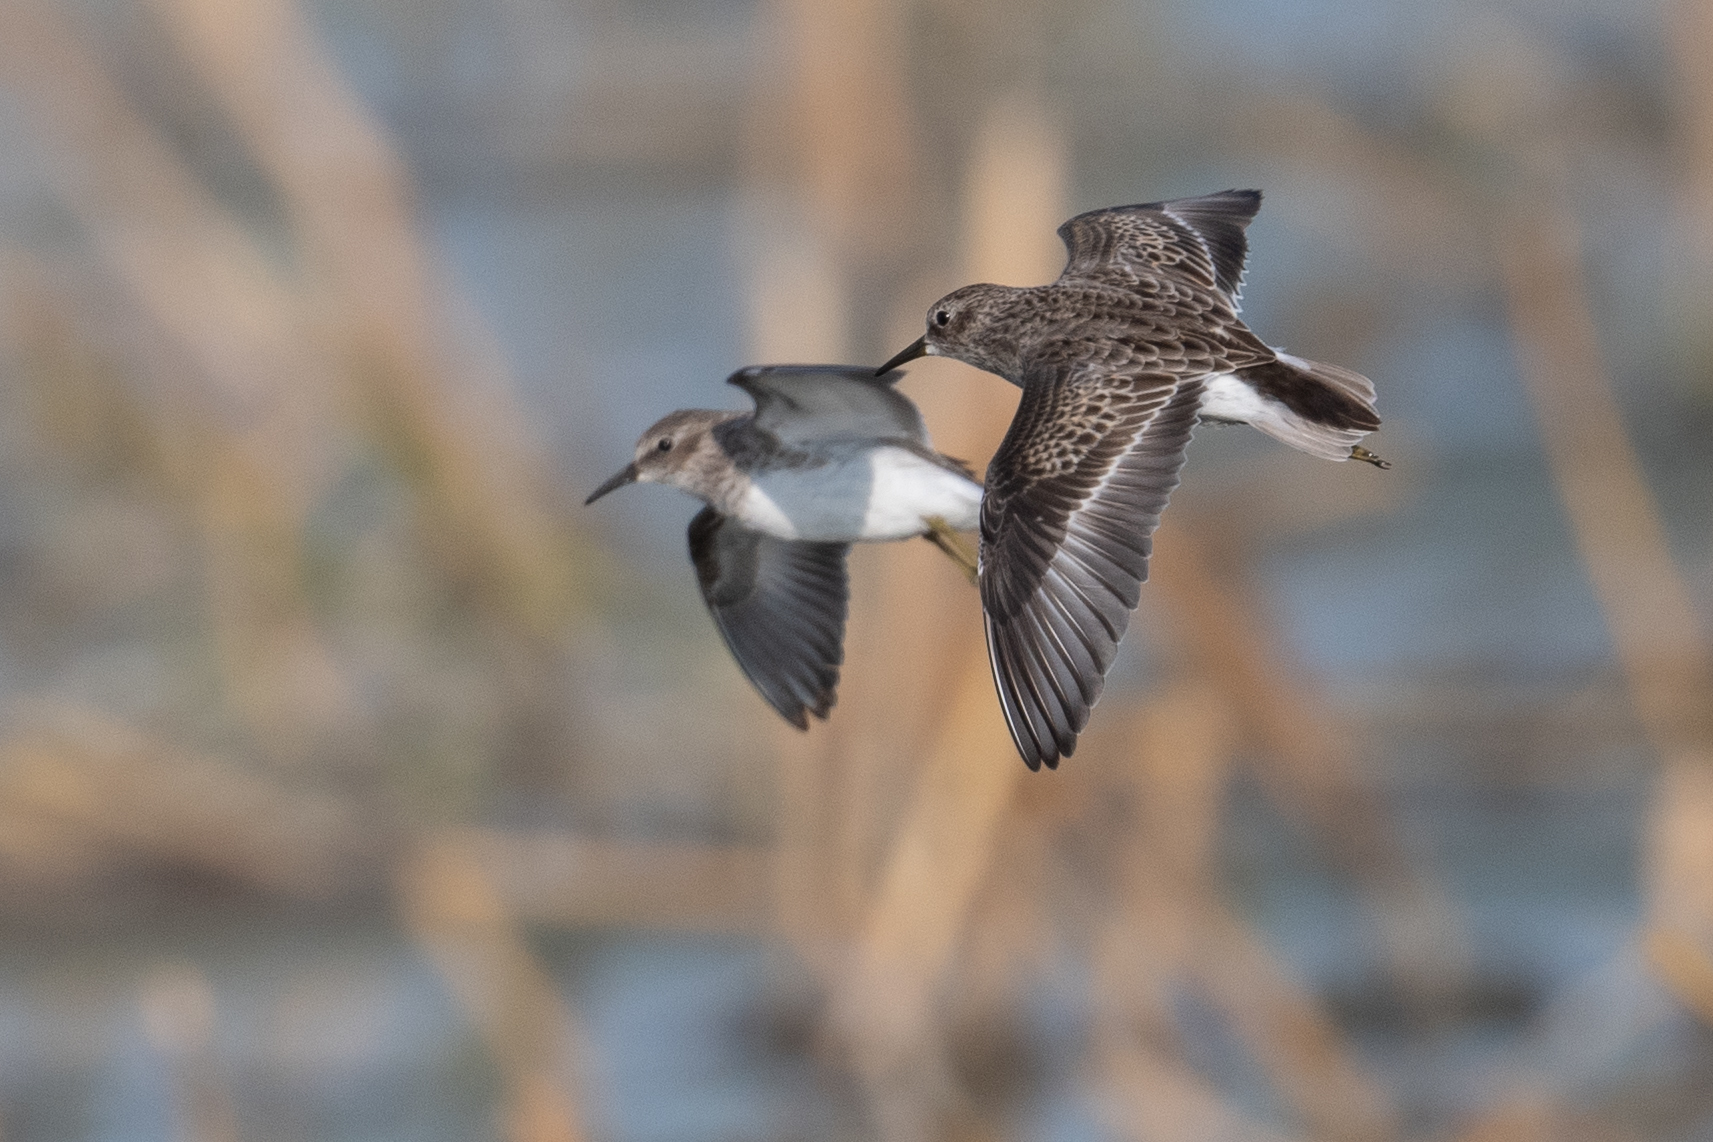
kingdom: Animalia
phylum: Chordata
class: Aves
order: Charadriiformes
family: Scolopacidae
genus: Calidris
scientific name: Calidris minutilla
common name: Least sandpiper
